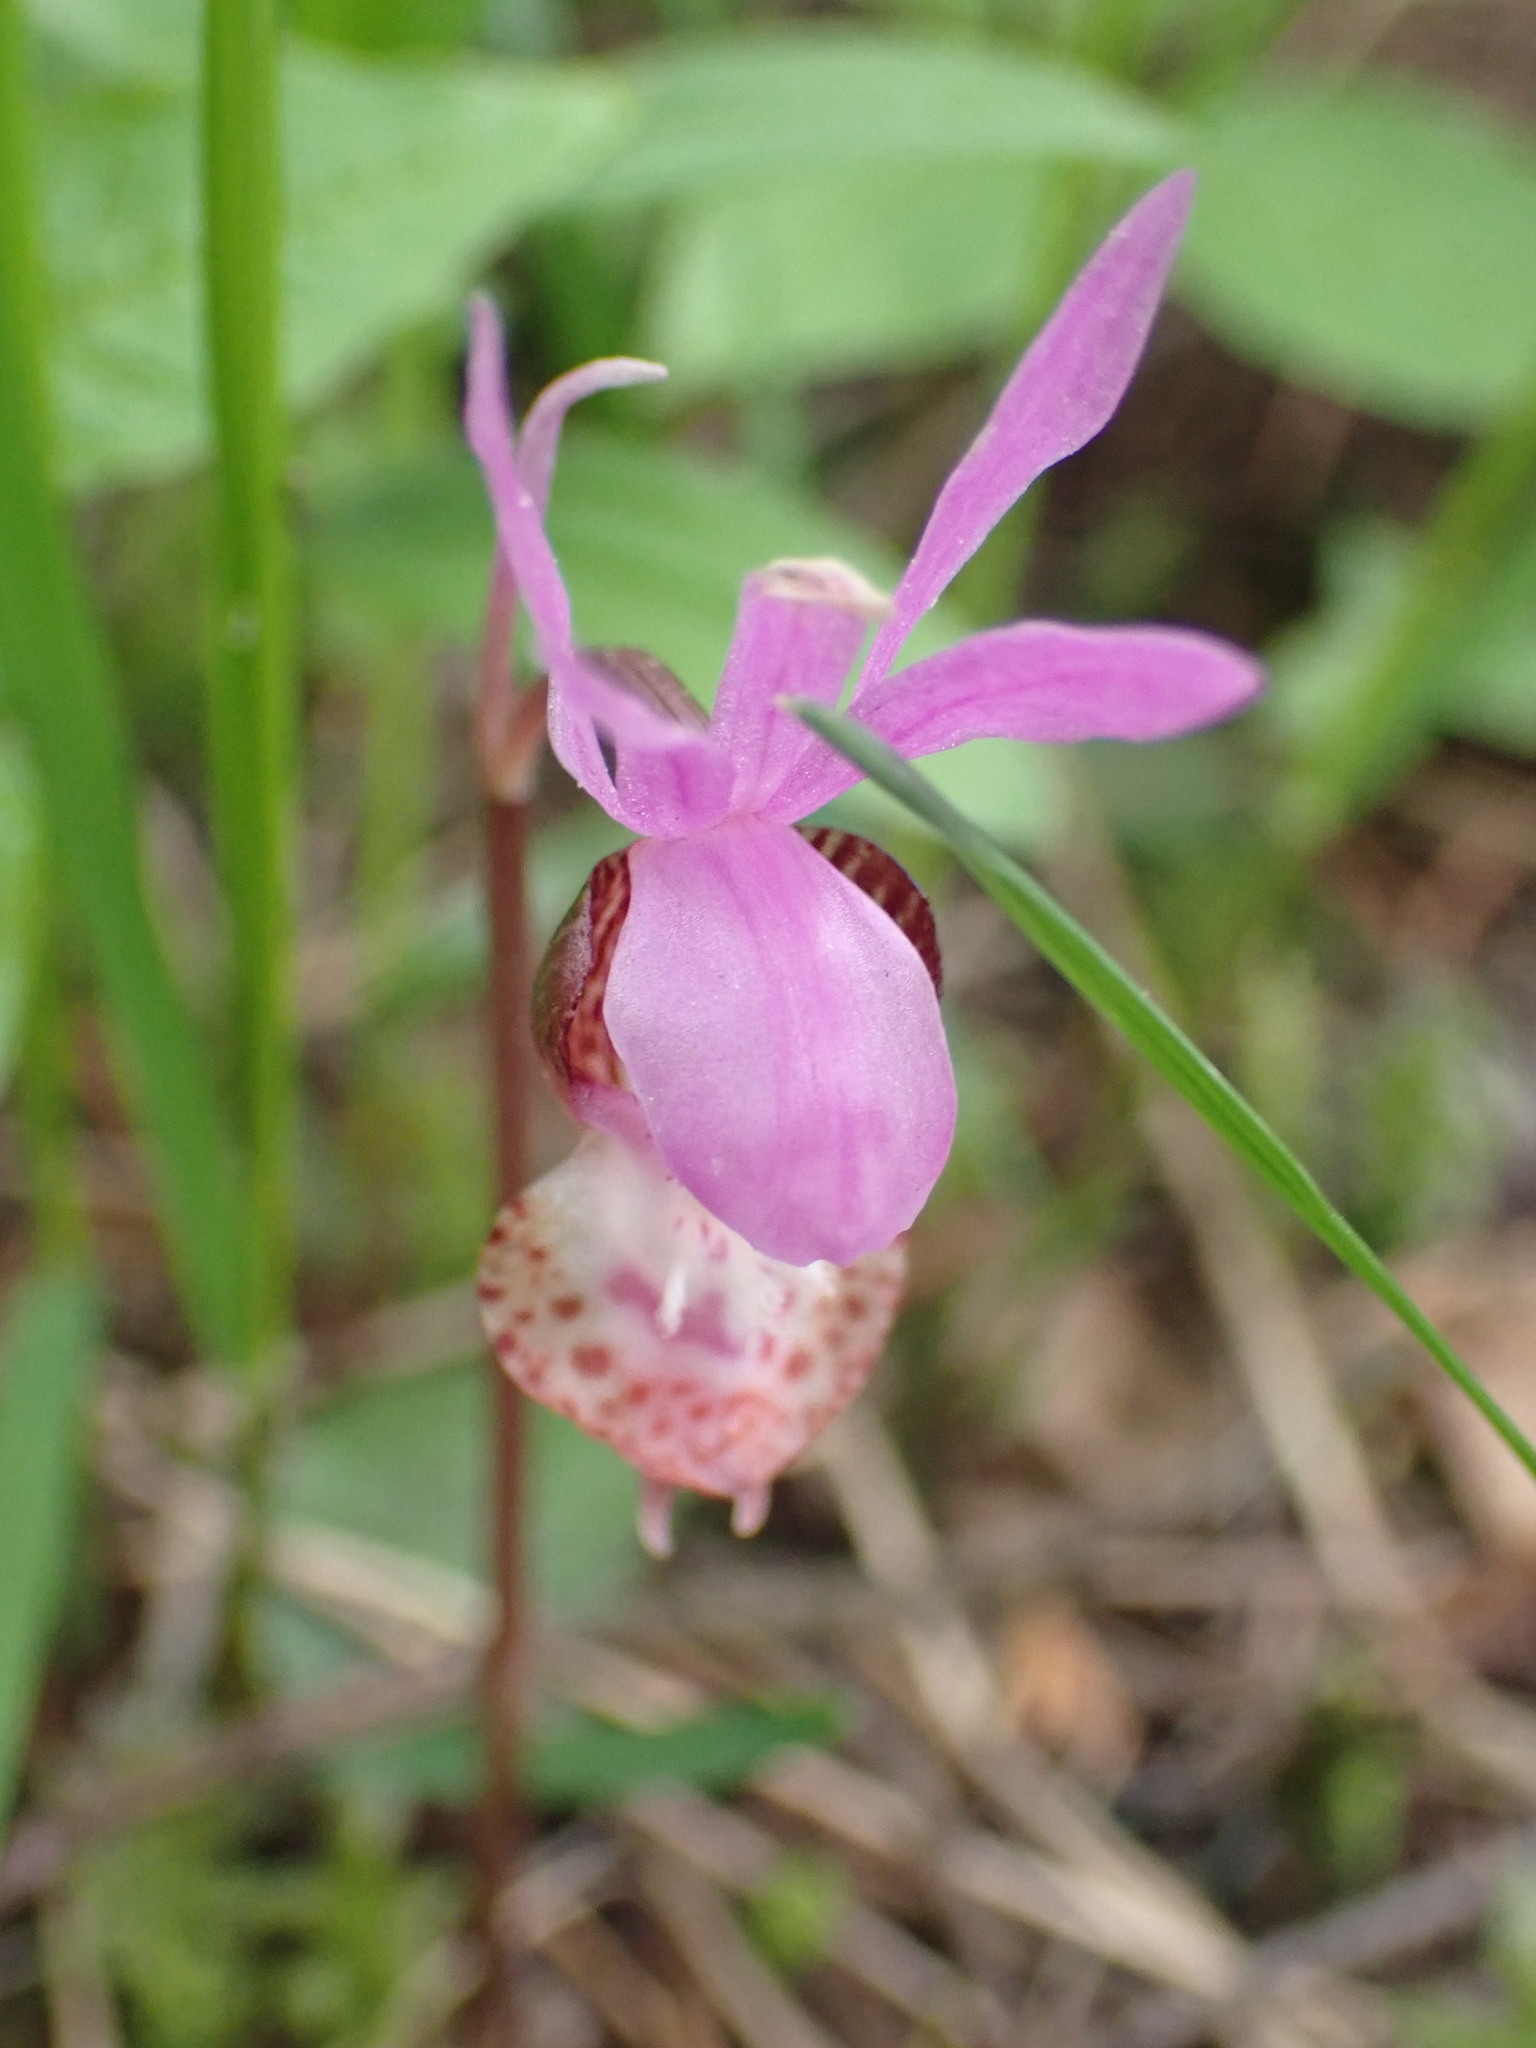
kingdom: Plantae
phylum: Tracheophyta
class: Liliopsida
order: Asparagales
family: Orchidaceae
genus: Calypso
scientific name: Calypso bulbosa
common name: Calypso
